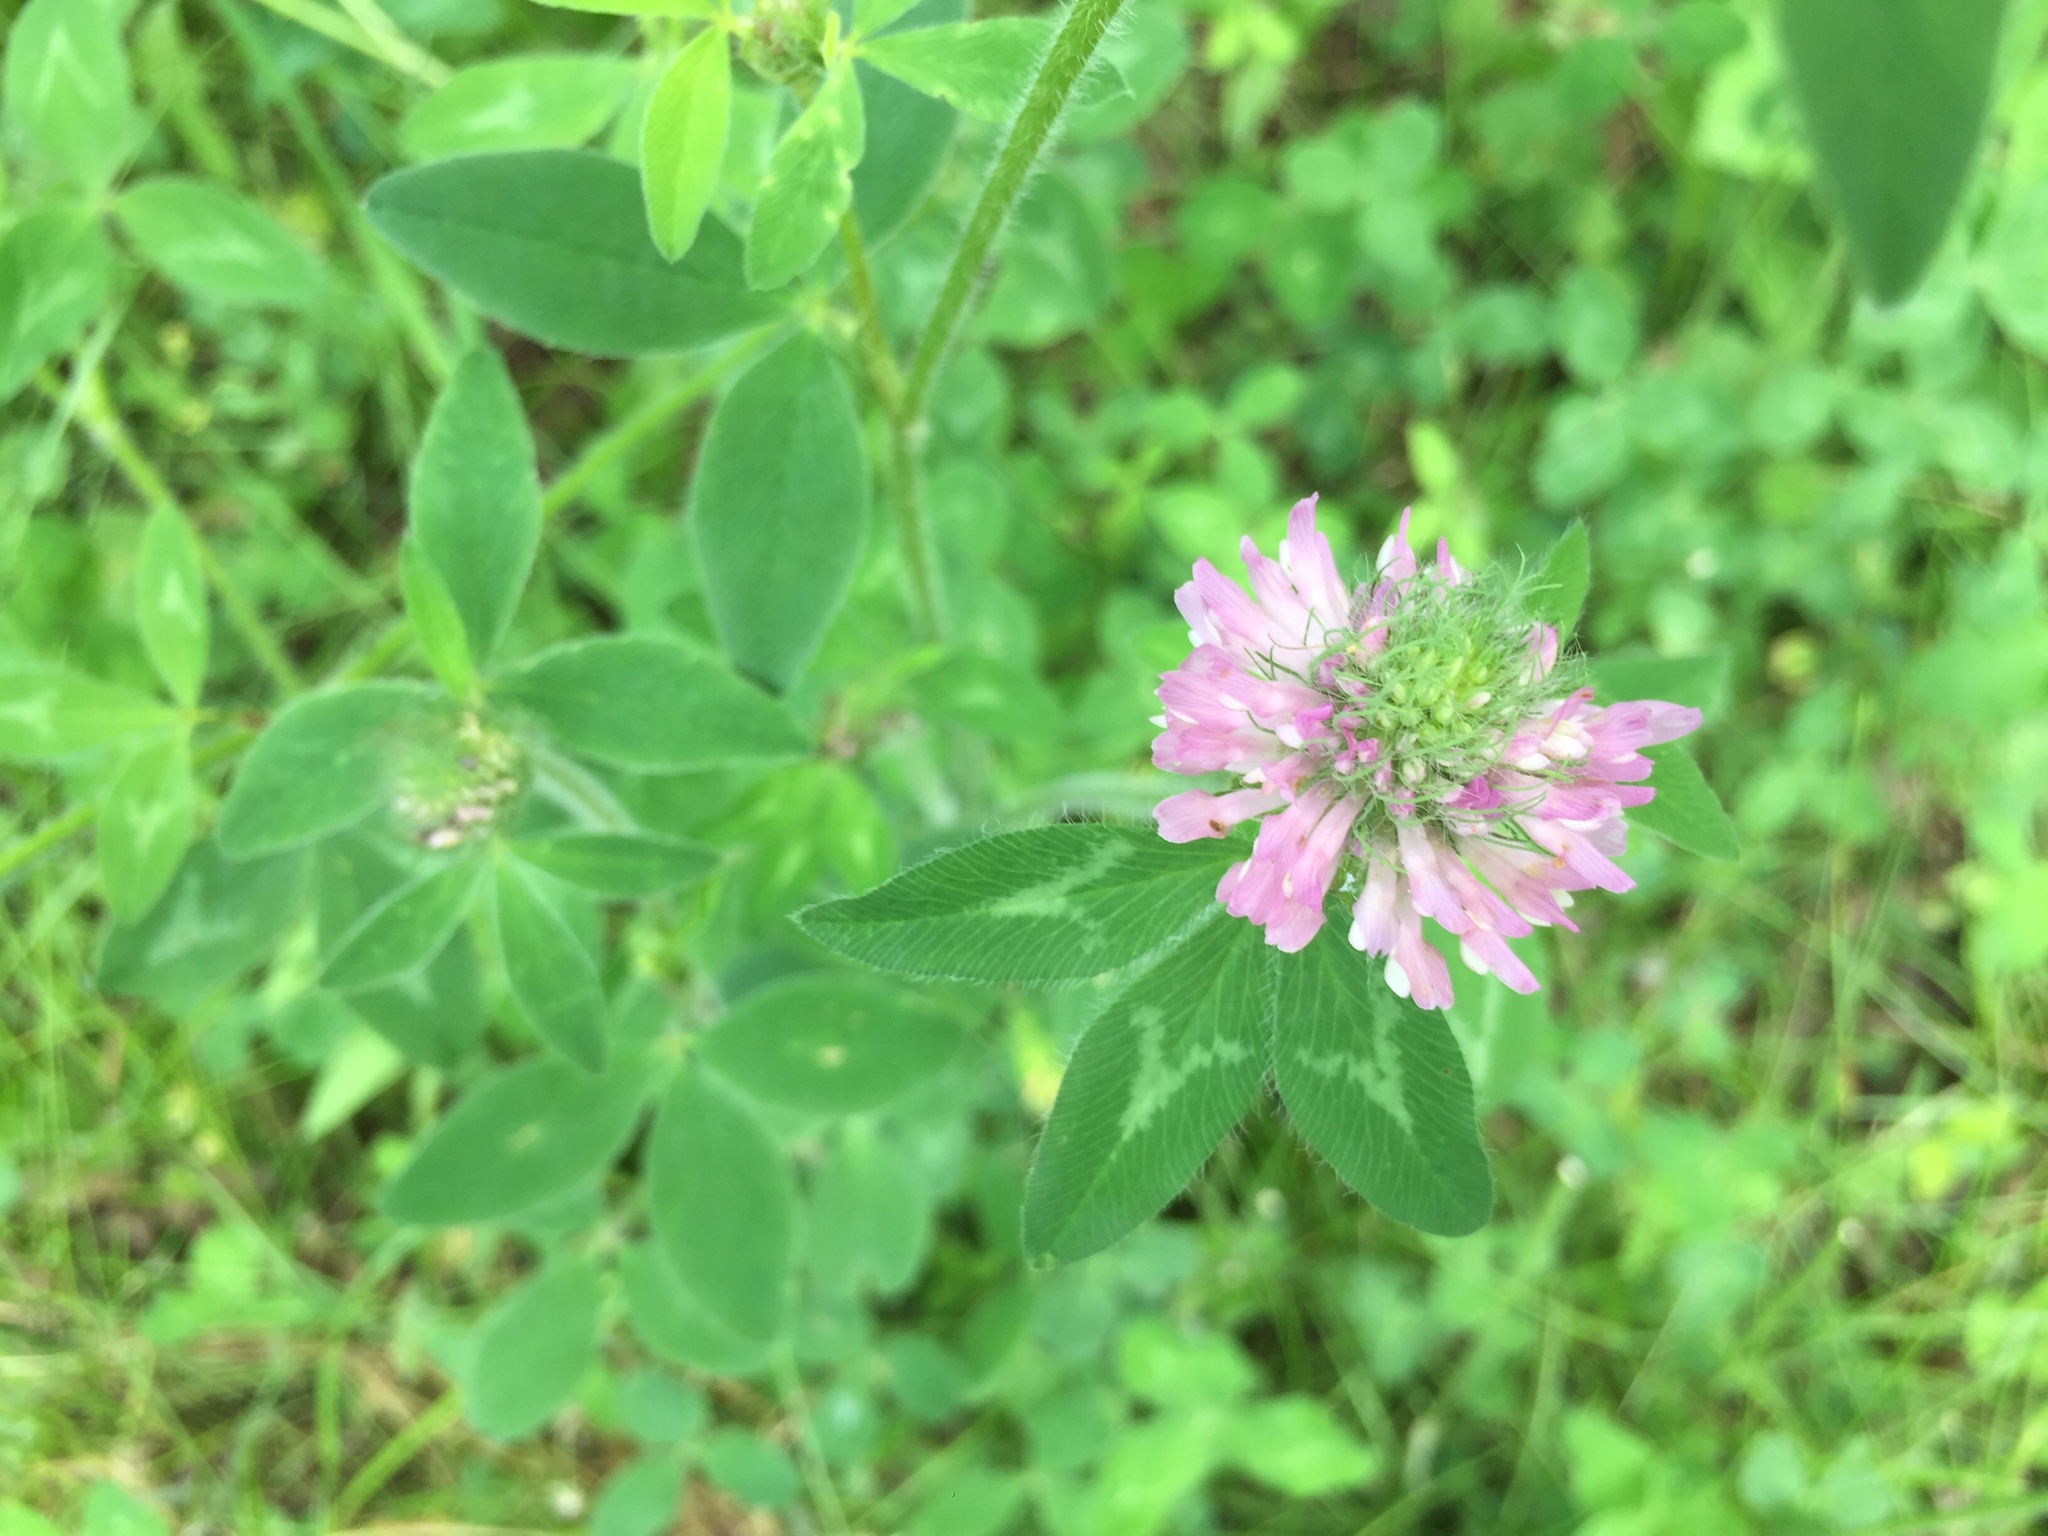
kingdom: Plantae
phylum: Tracheophyta
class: Magnoliopsida
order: Fabales
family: Fabaceae
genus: Trifolium
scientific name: Trifolium pratense
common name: Red clover
